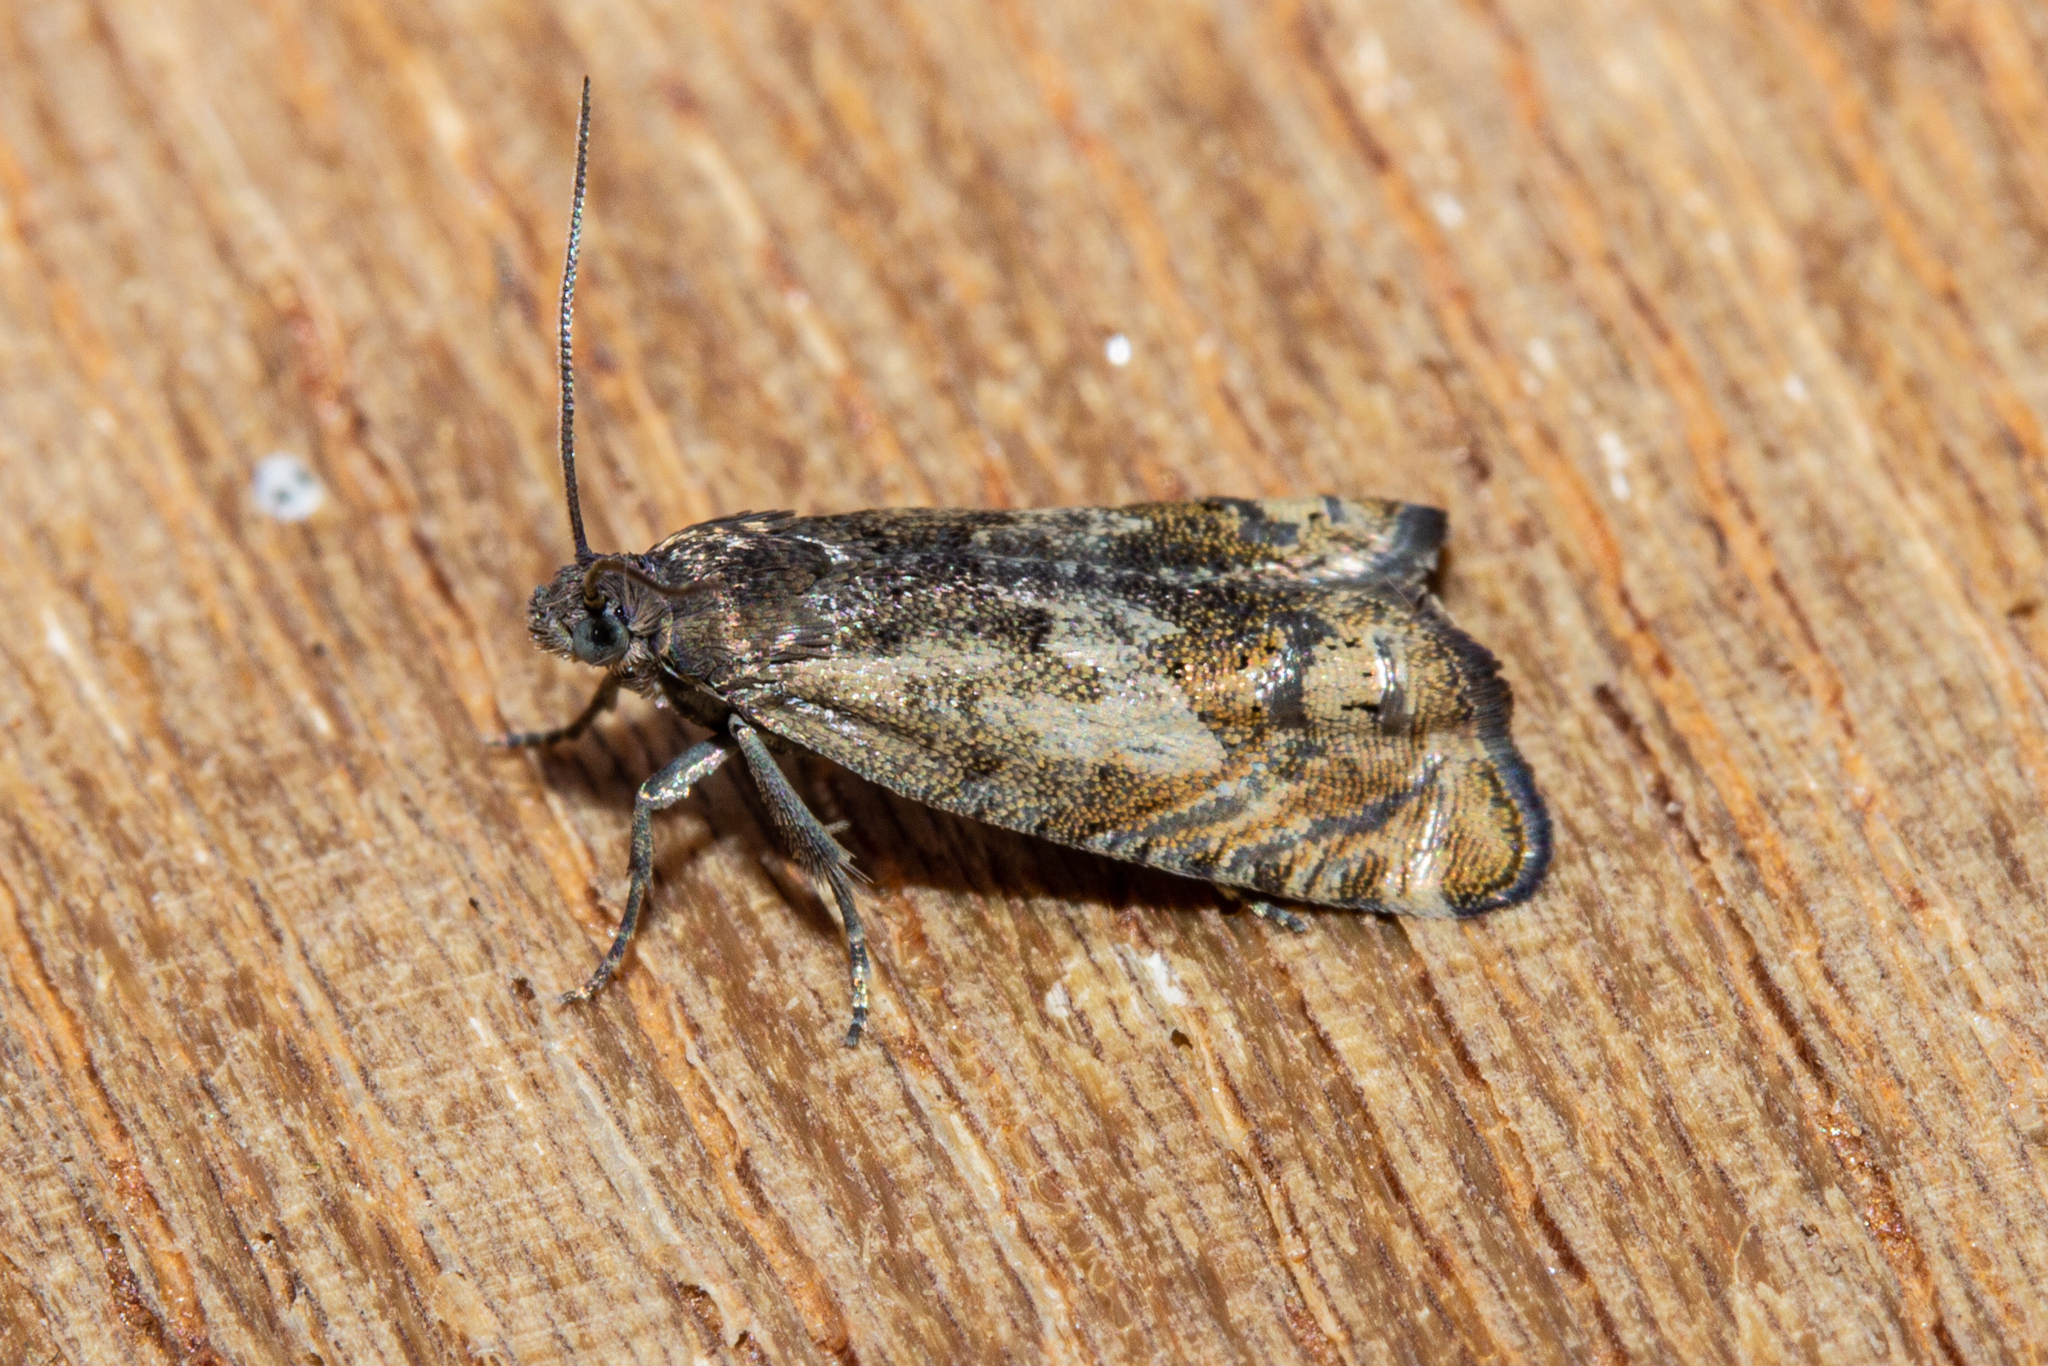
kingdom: Animalia
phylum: Arthropoda
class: Insecta
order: Lepidoptera
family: Tortricidae
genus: Cydia
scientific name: Cydia succedana
